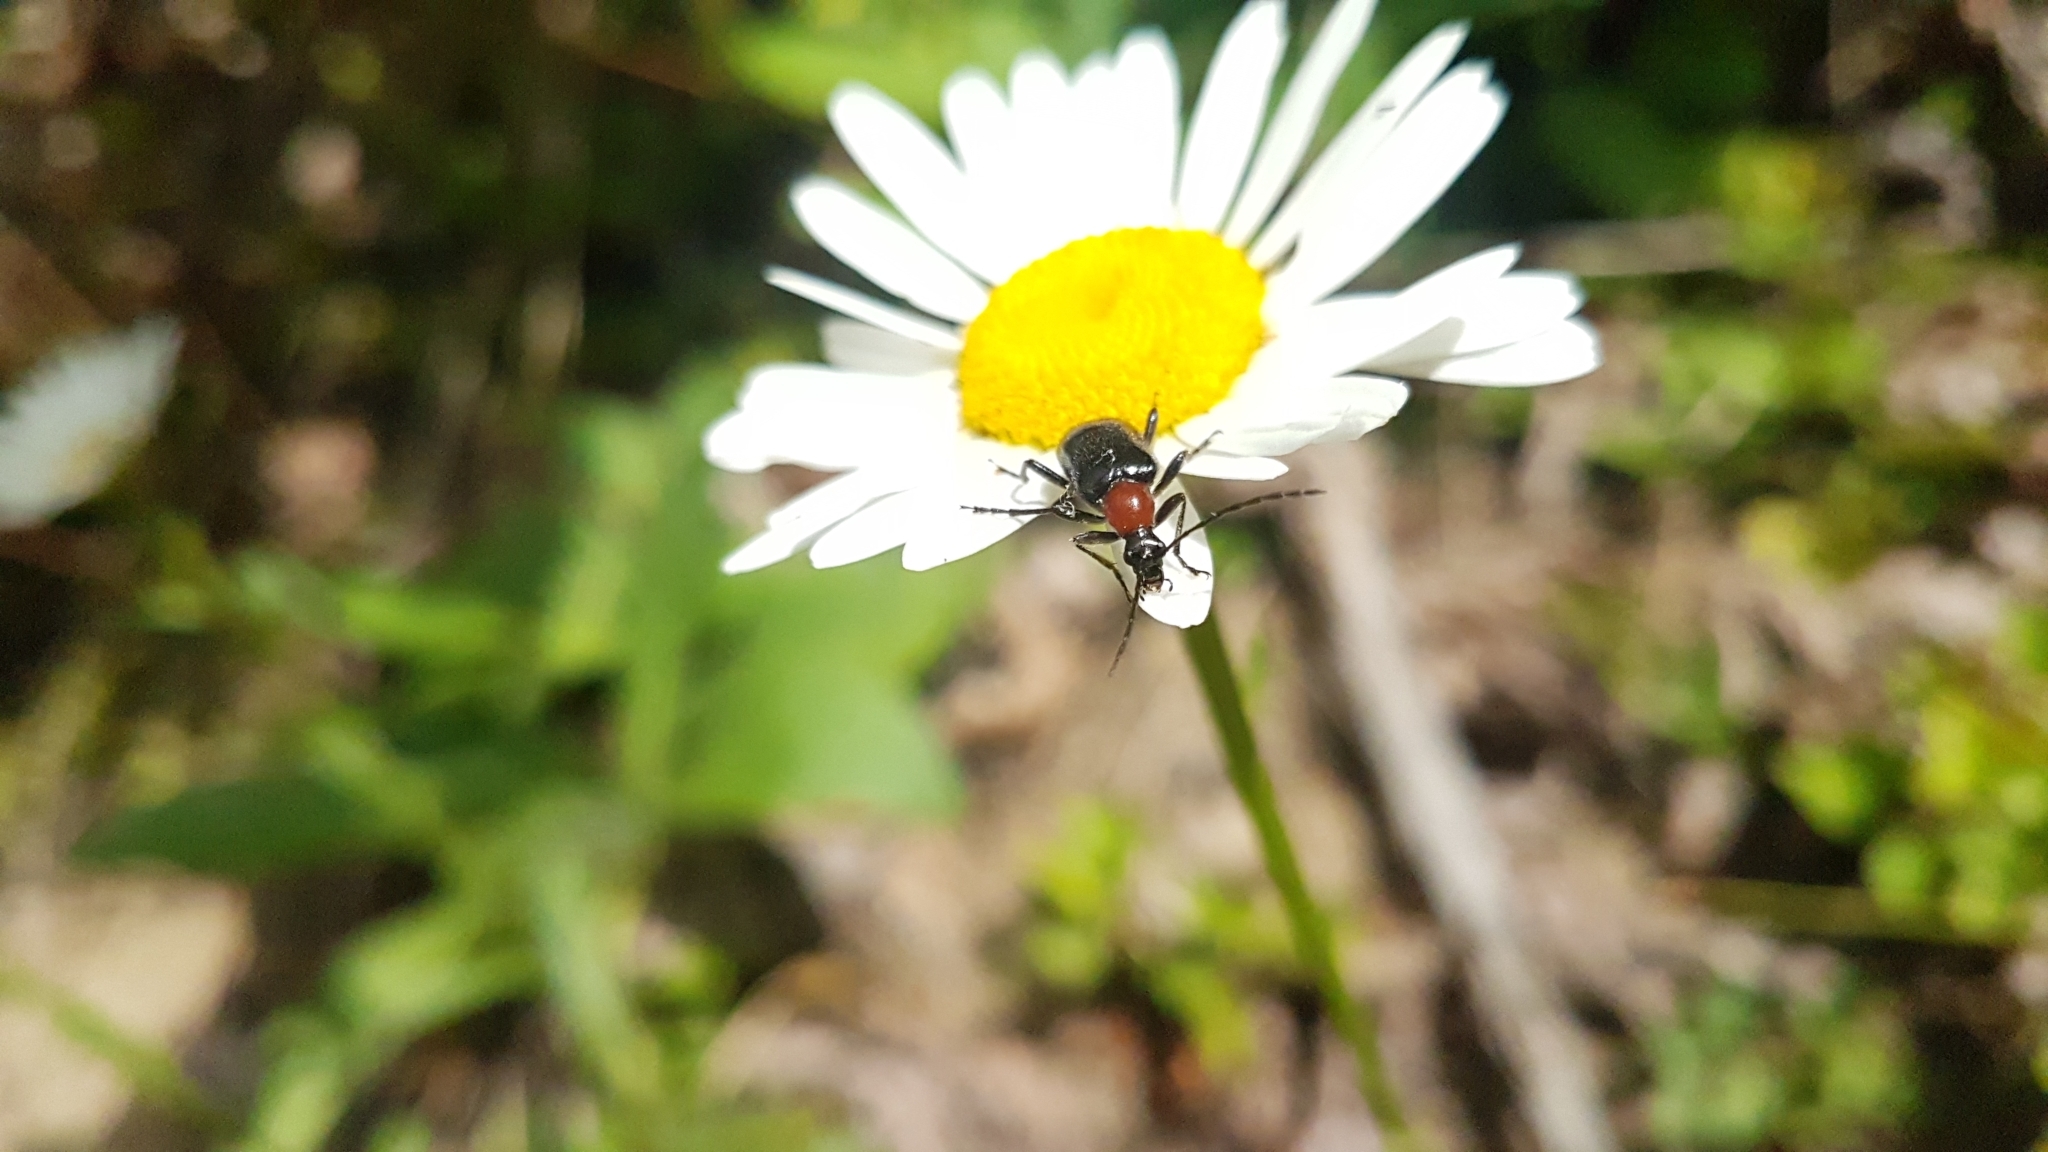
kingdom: Animalia
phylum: Arthropoda
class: Insecta
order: Coleoptera
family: Cerambycidae
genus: Dinoptera
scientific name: Dinoptera collaris
